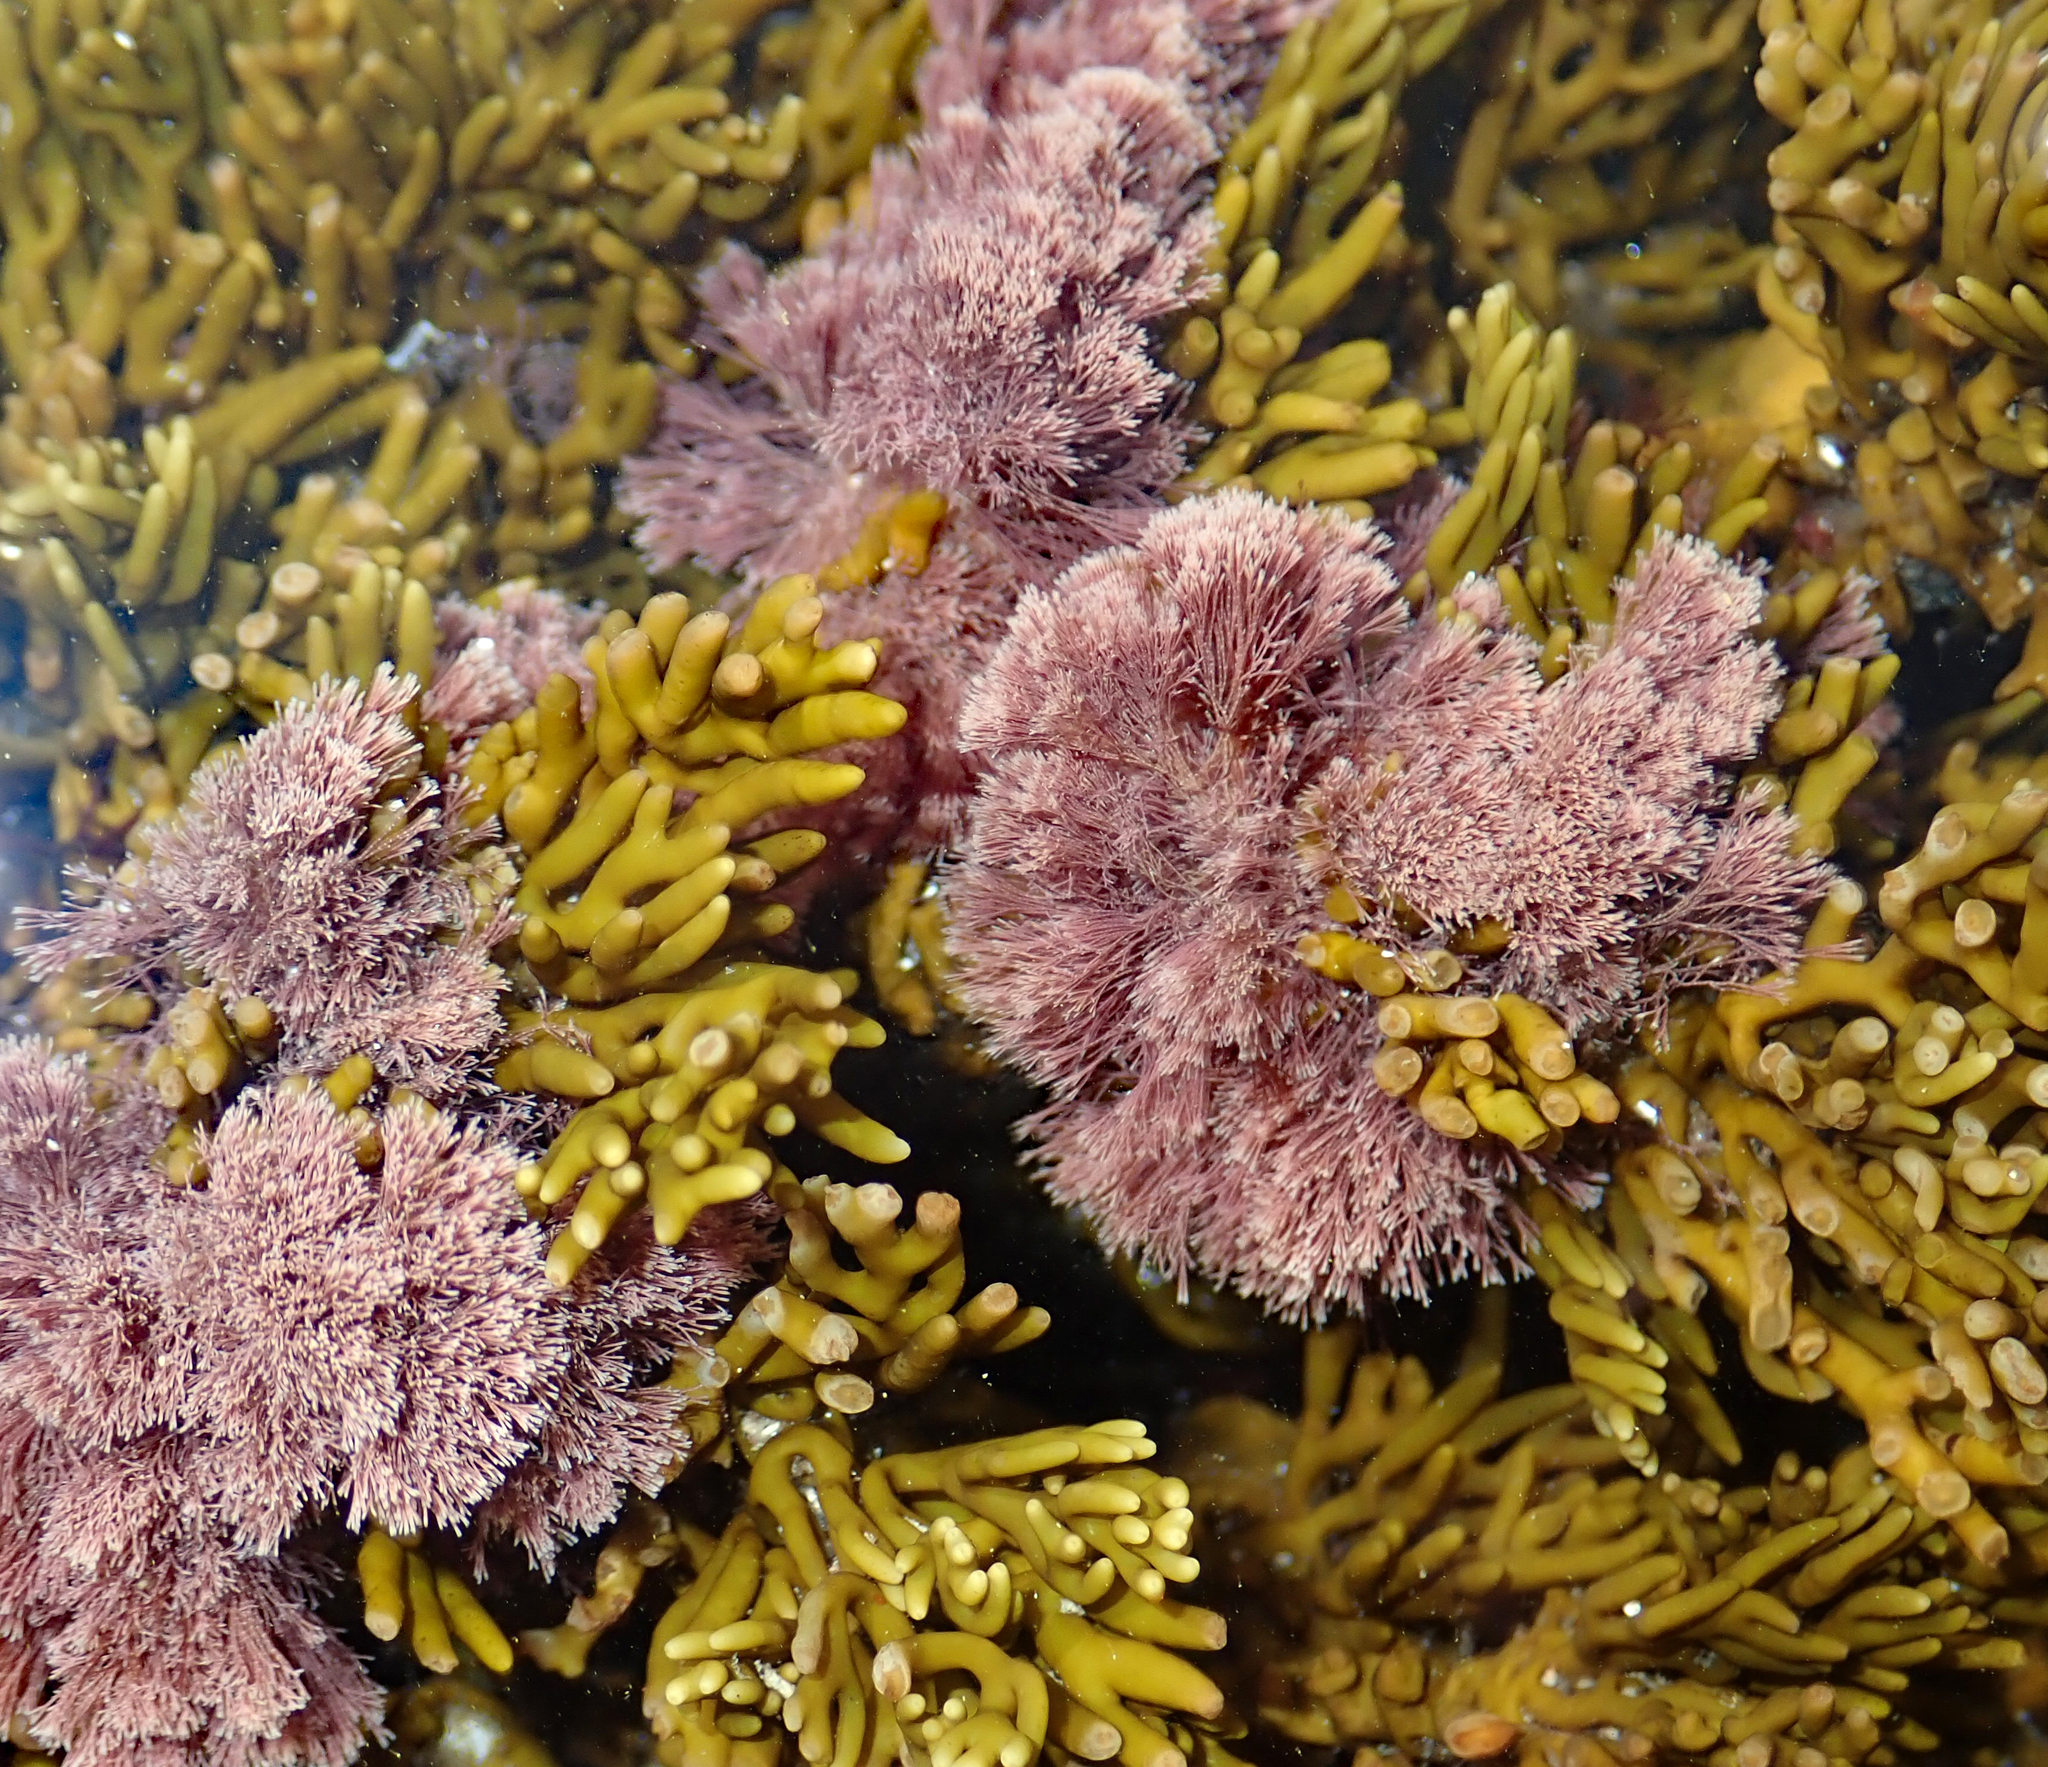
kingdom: Plantae
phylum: Rhodophyta
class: Florideophyceae
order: Corallinales
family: Corallinaceae
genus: Jania
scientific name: Jania sphaeroramosa
